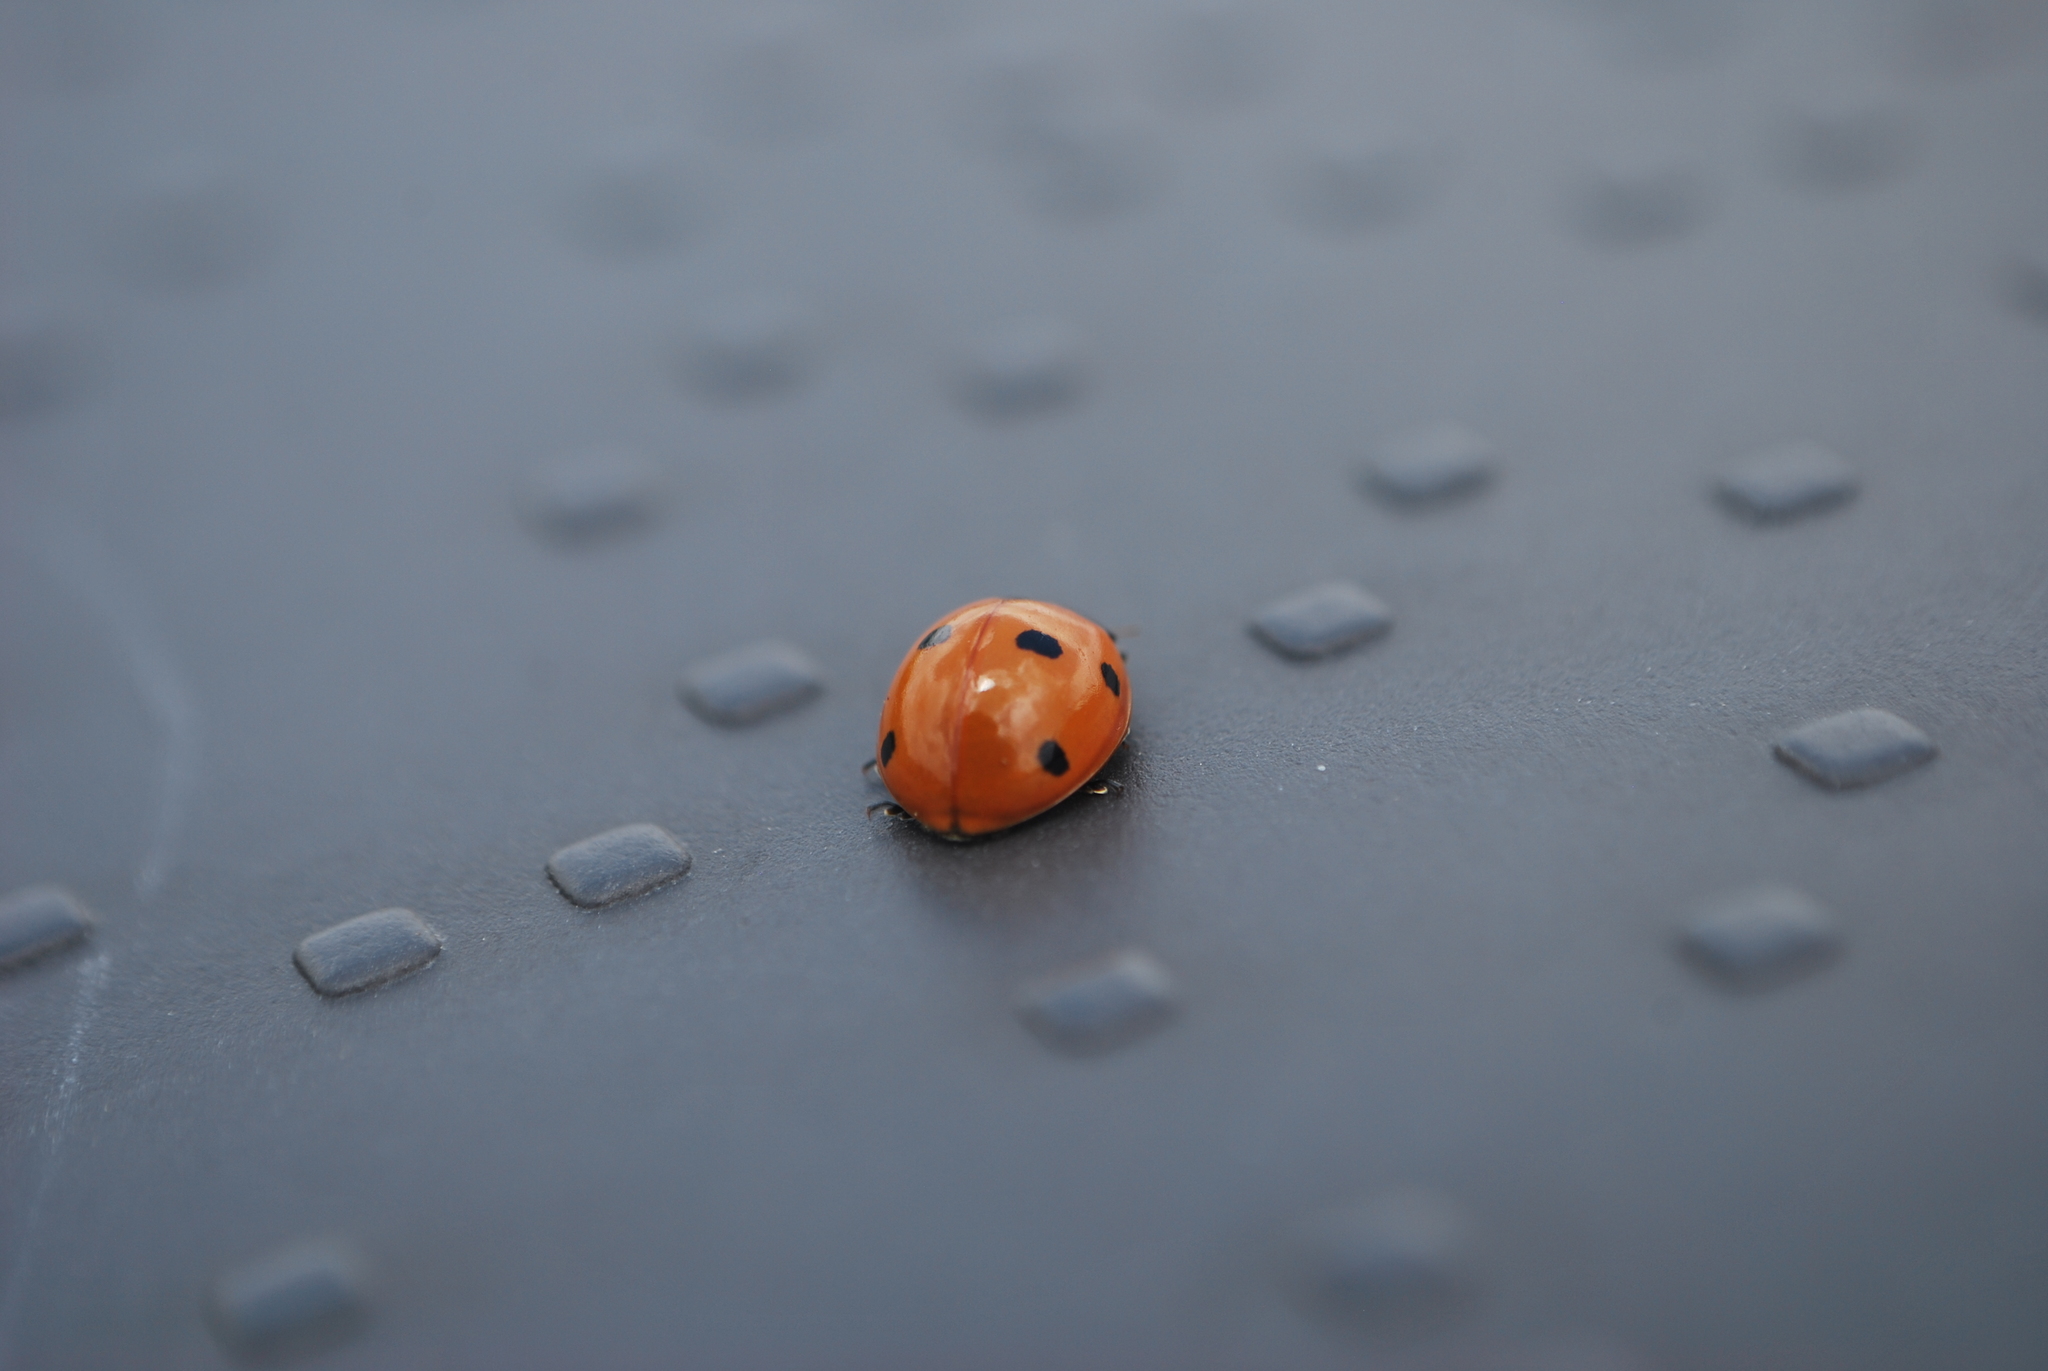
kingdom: Animalia
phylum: Arthropoda
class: Insecta
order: Coleoptera
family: Coccinellidae
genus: Coccinella
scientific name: Coccinella septempunctata
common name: Sevenspotted lady beetle
